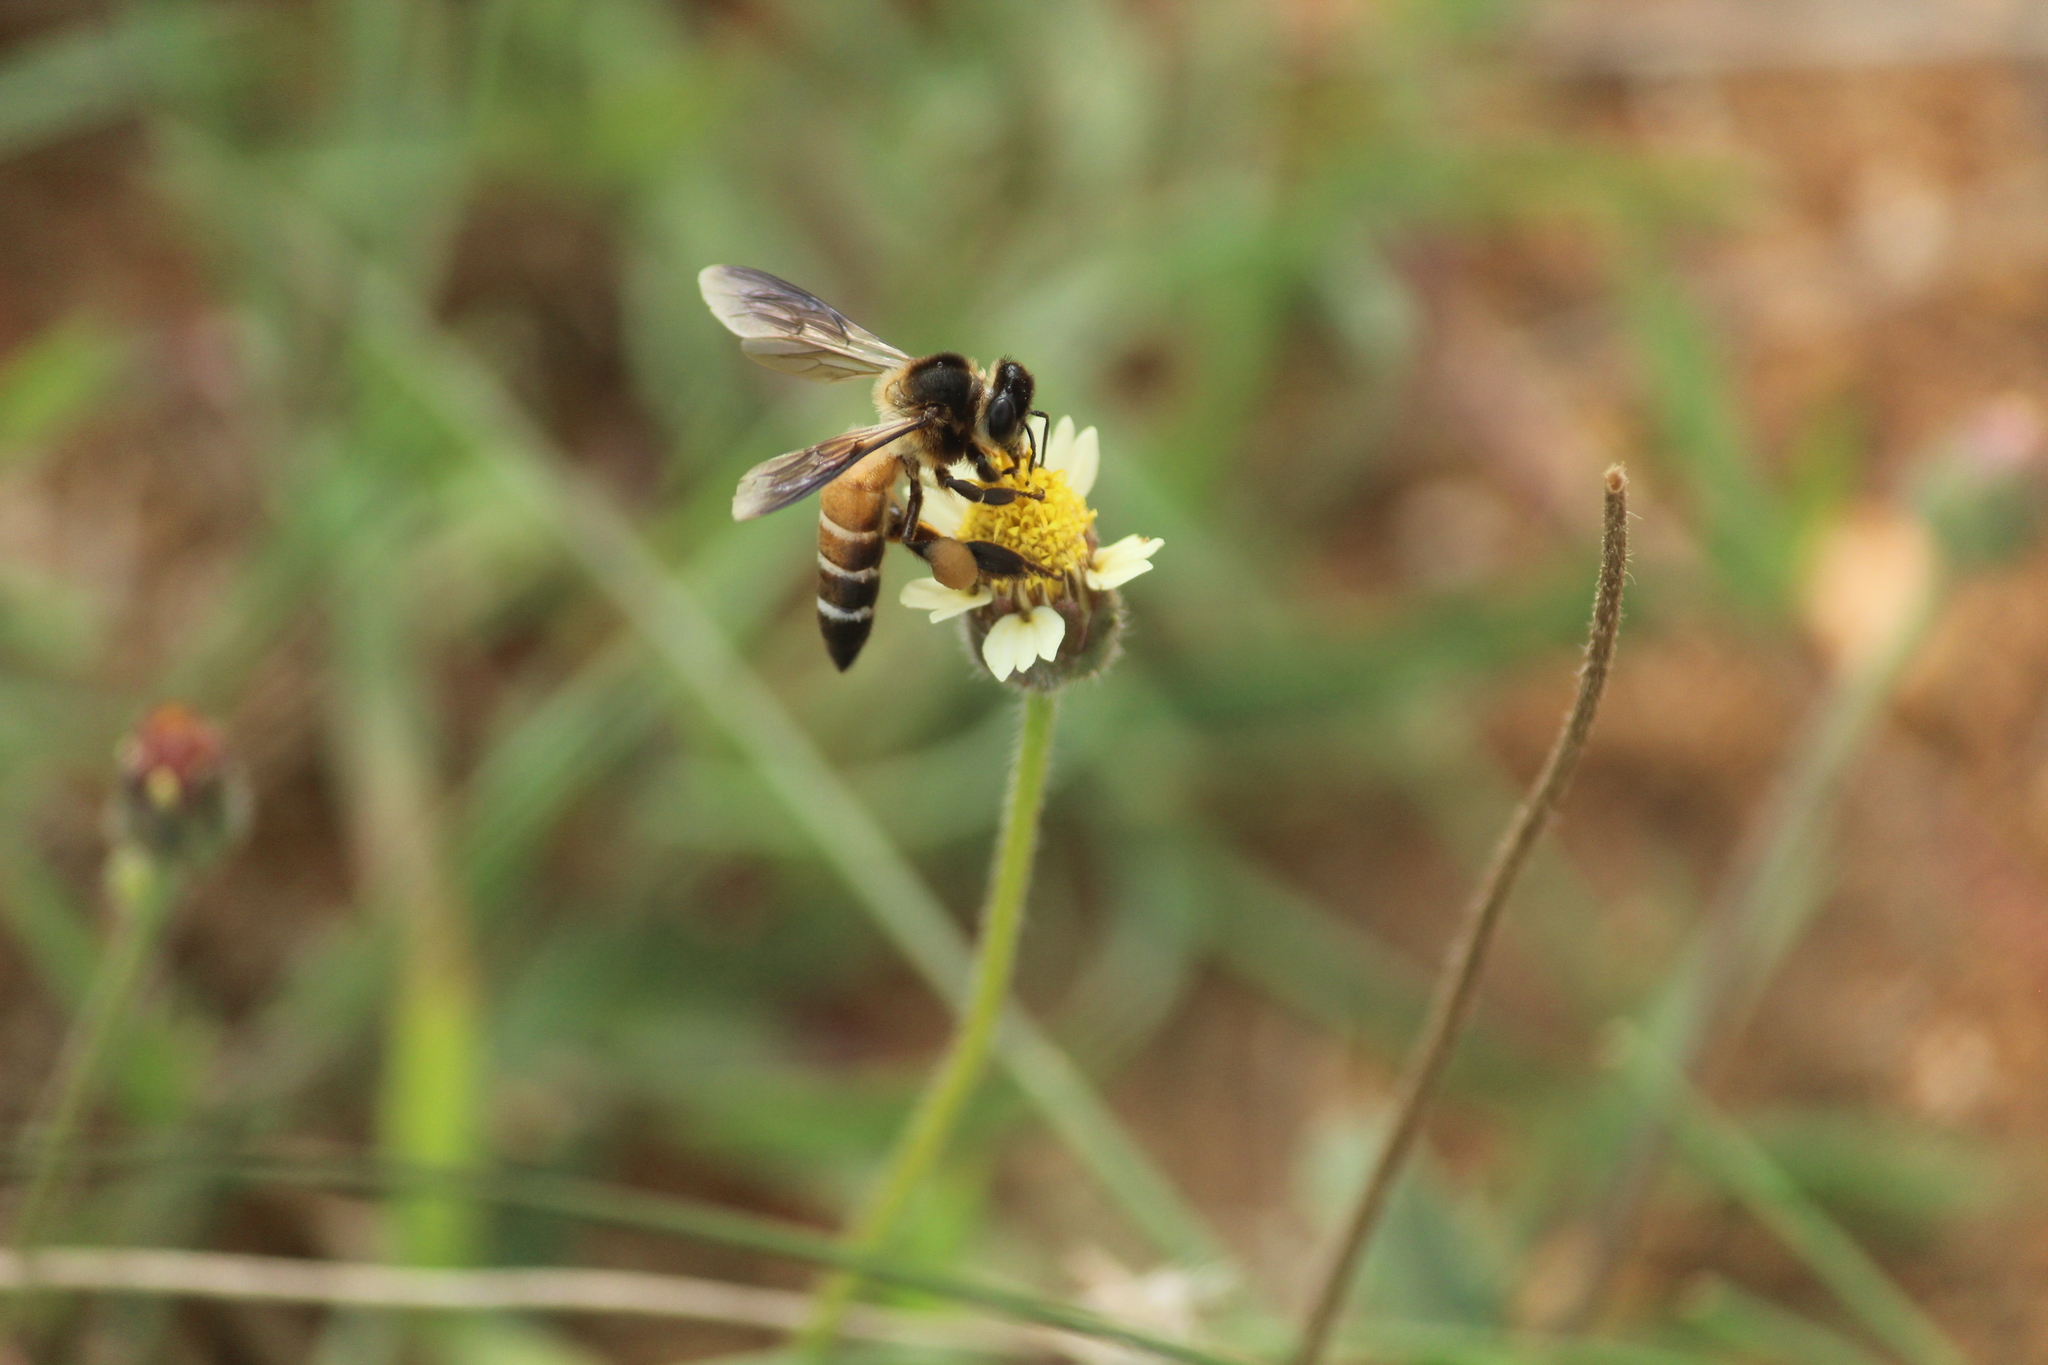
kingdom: Animalia
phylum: Arthropoda
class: Insecta
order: Hymenoptera
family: Apidae
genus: Apis
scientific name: Apis dorsata
